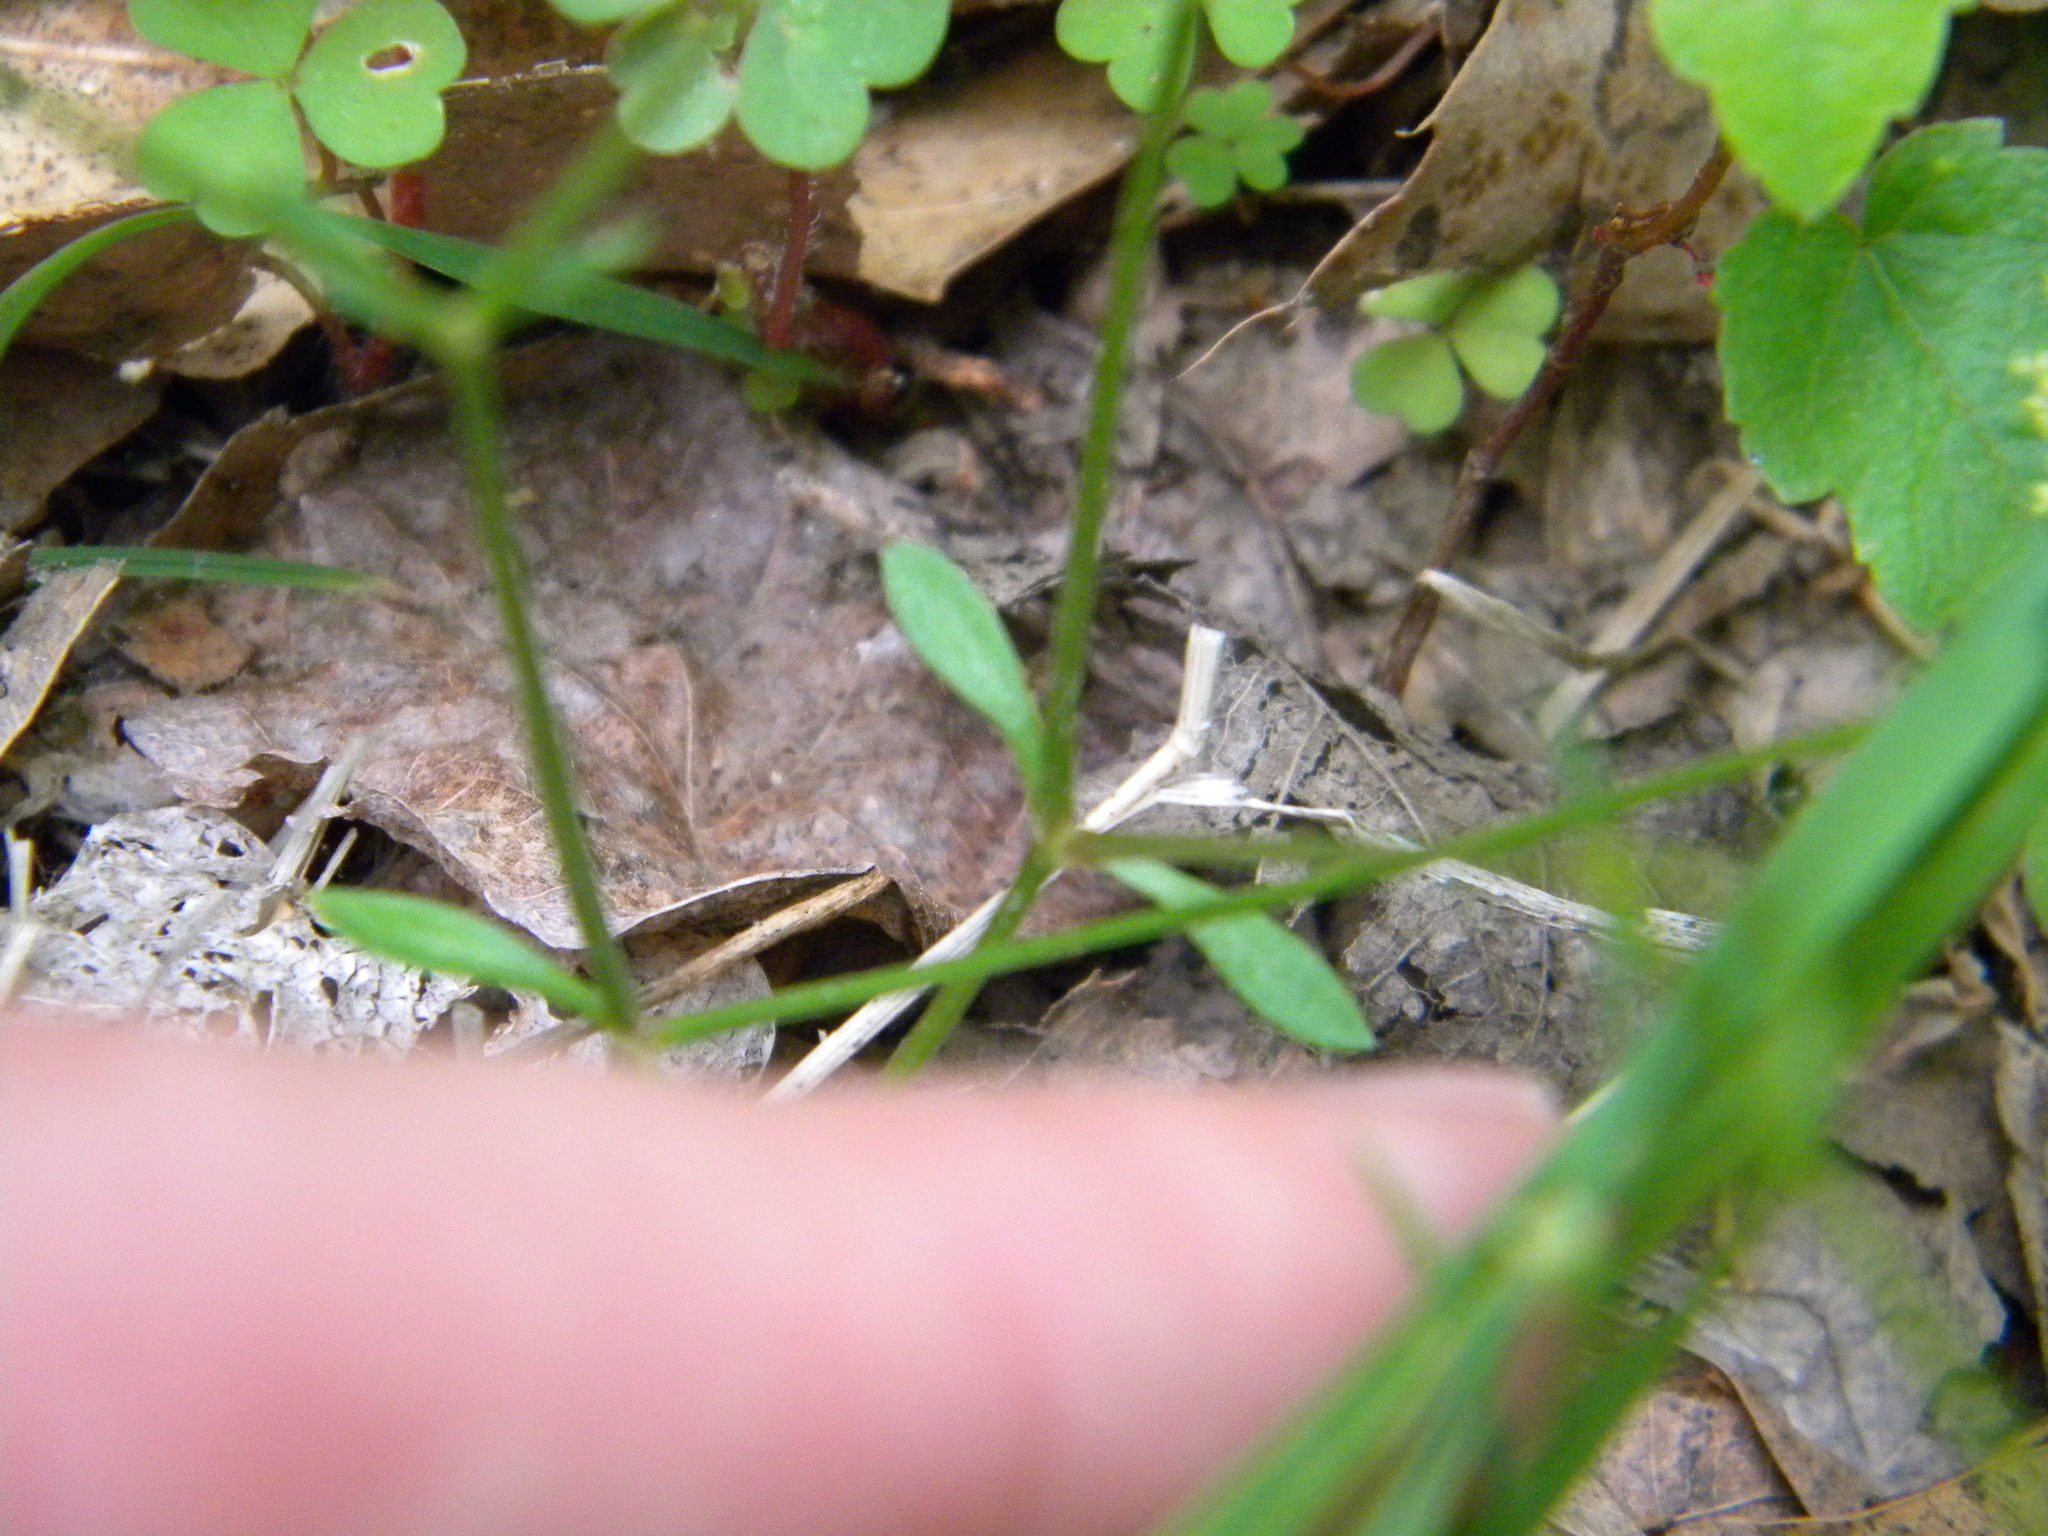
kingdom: Plantae
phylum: Tracheophyta
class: Magnoliopsida
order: Gentianales
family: Rubiaceae
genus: Houstonia
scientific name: Houstonia caerulea
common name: Bluets
